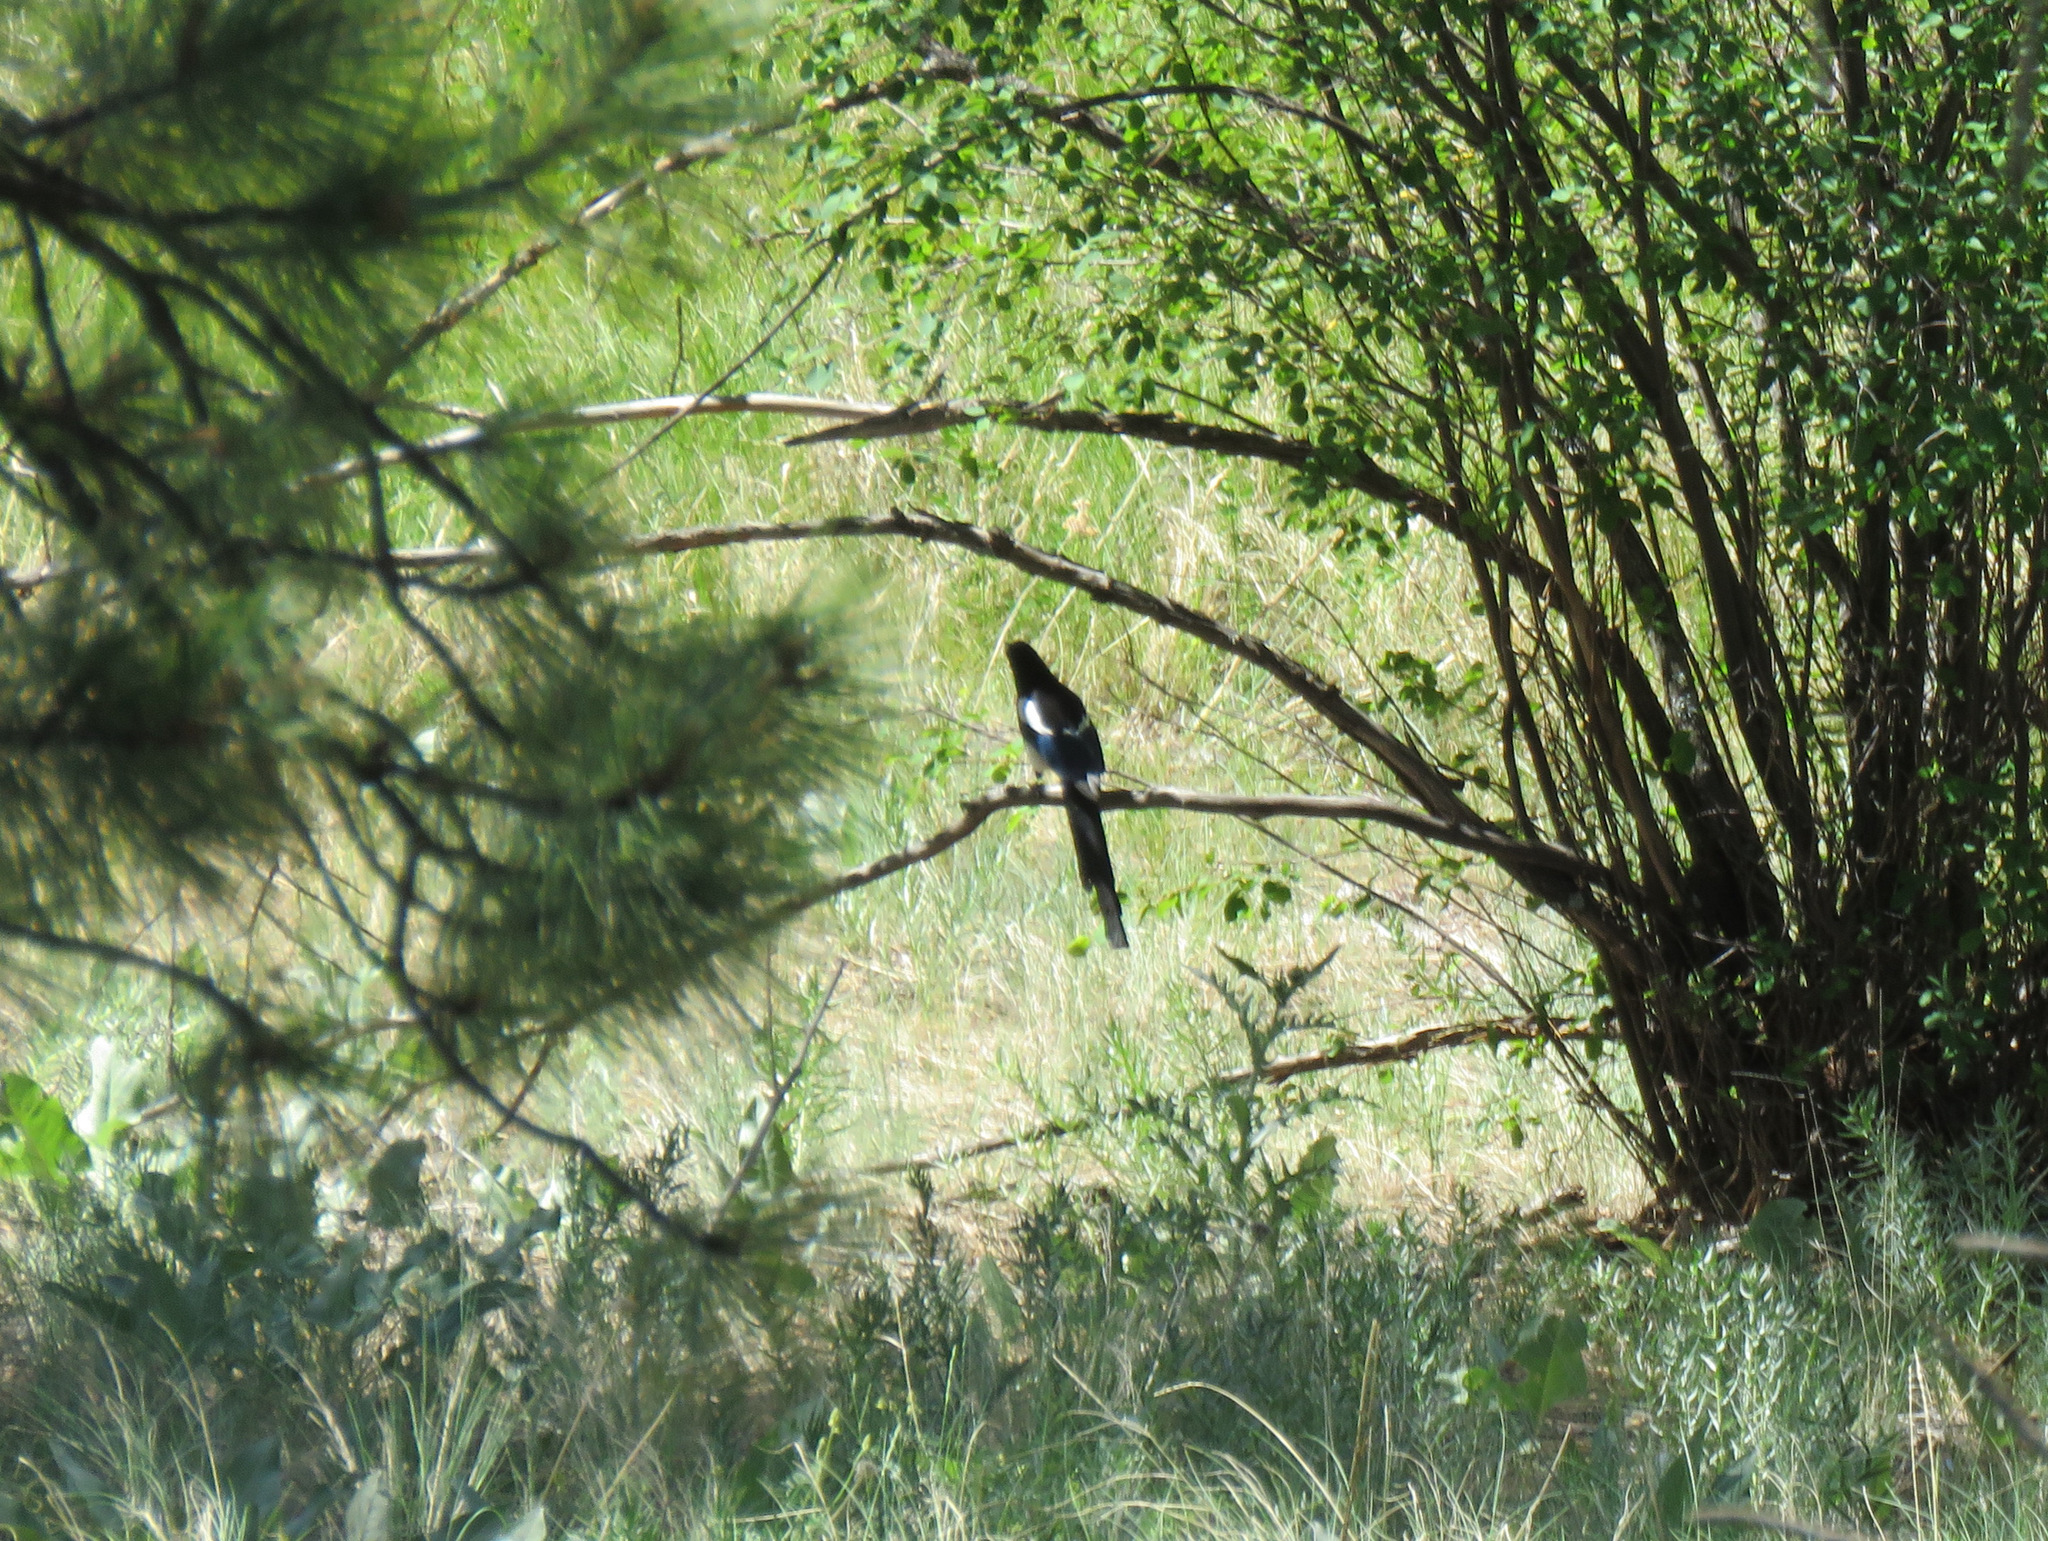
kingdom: Animalia
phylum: Chordata
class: Aves
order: Passeriformes
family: Corvidae
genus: Pica
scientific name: Pica hudsonia
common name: Black-billed magpie
